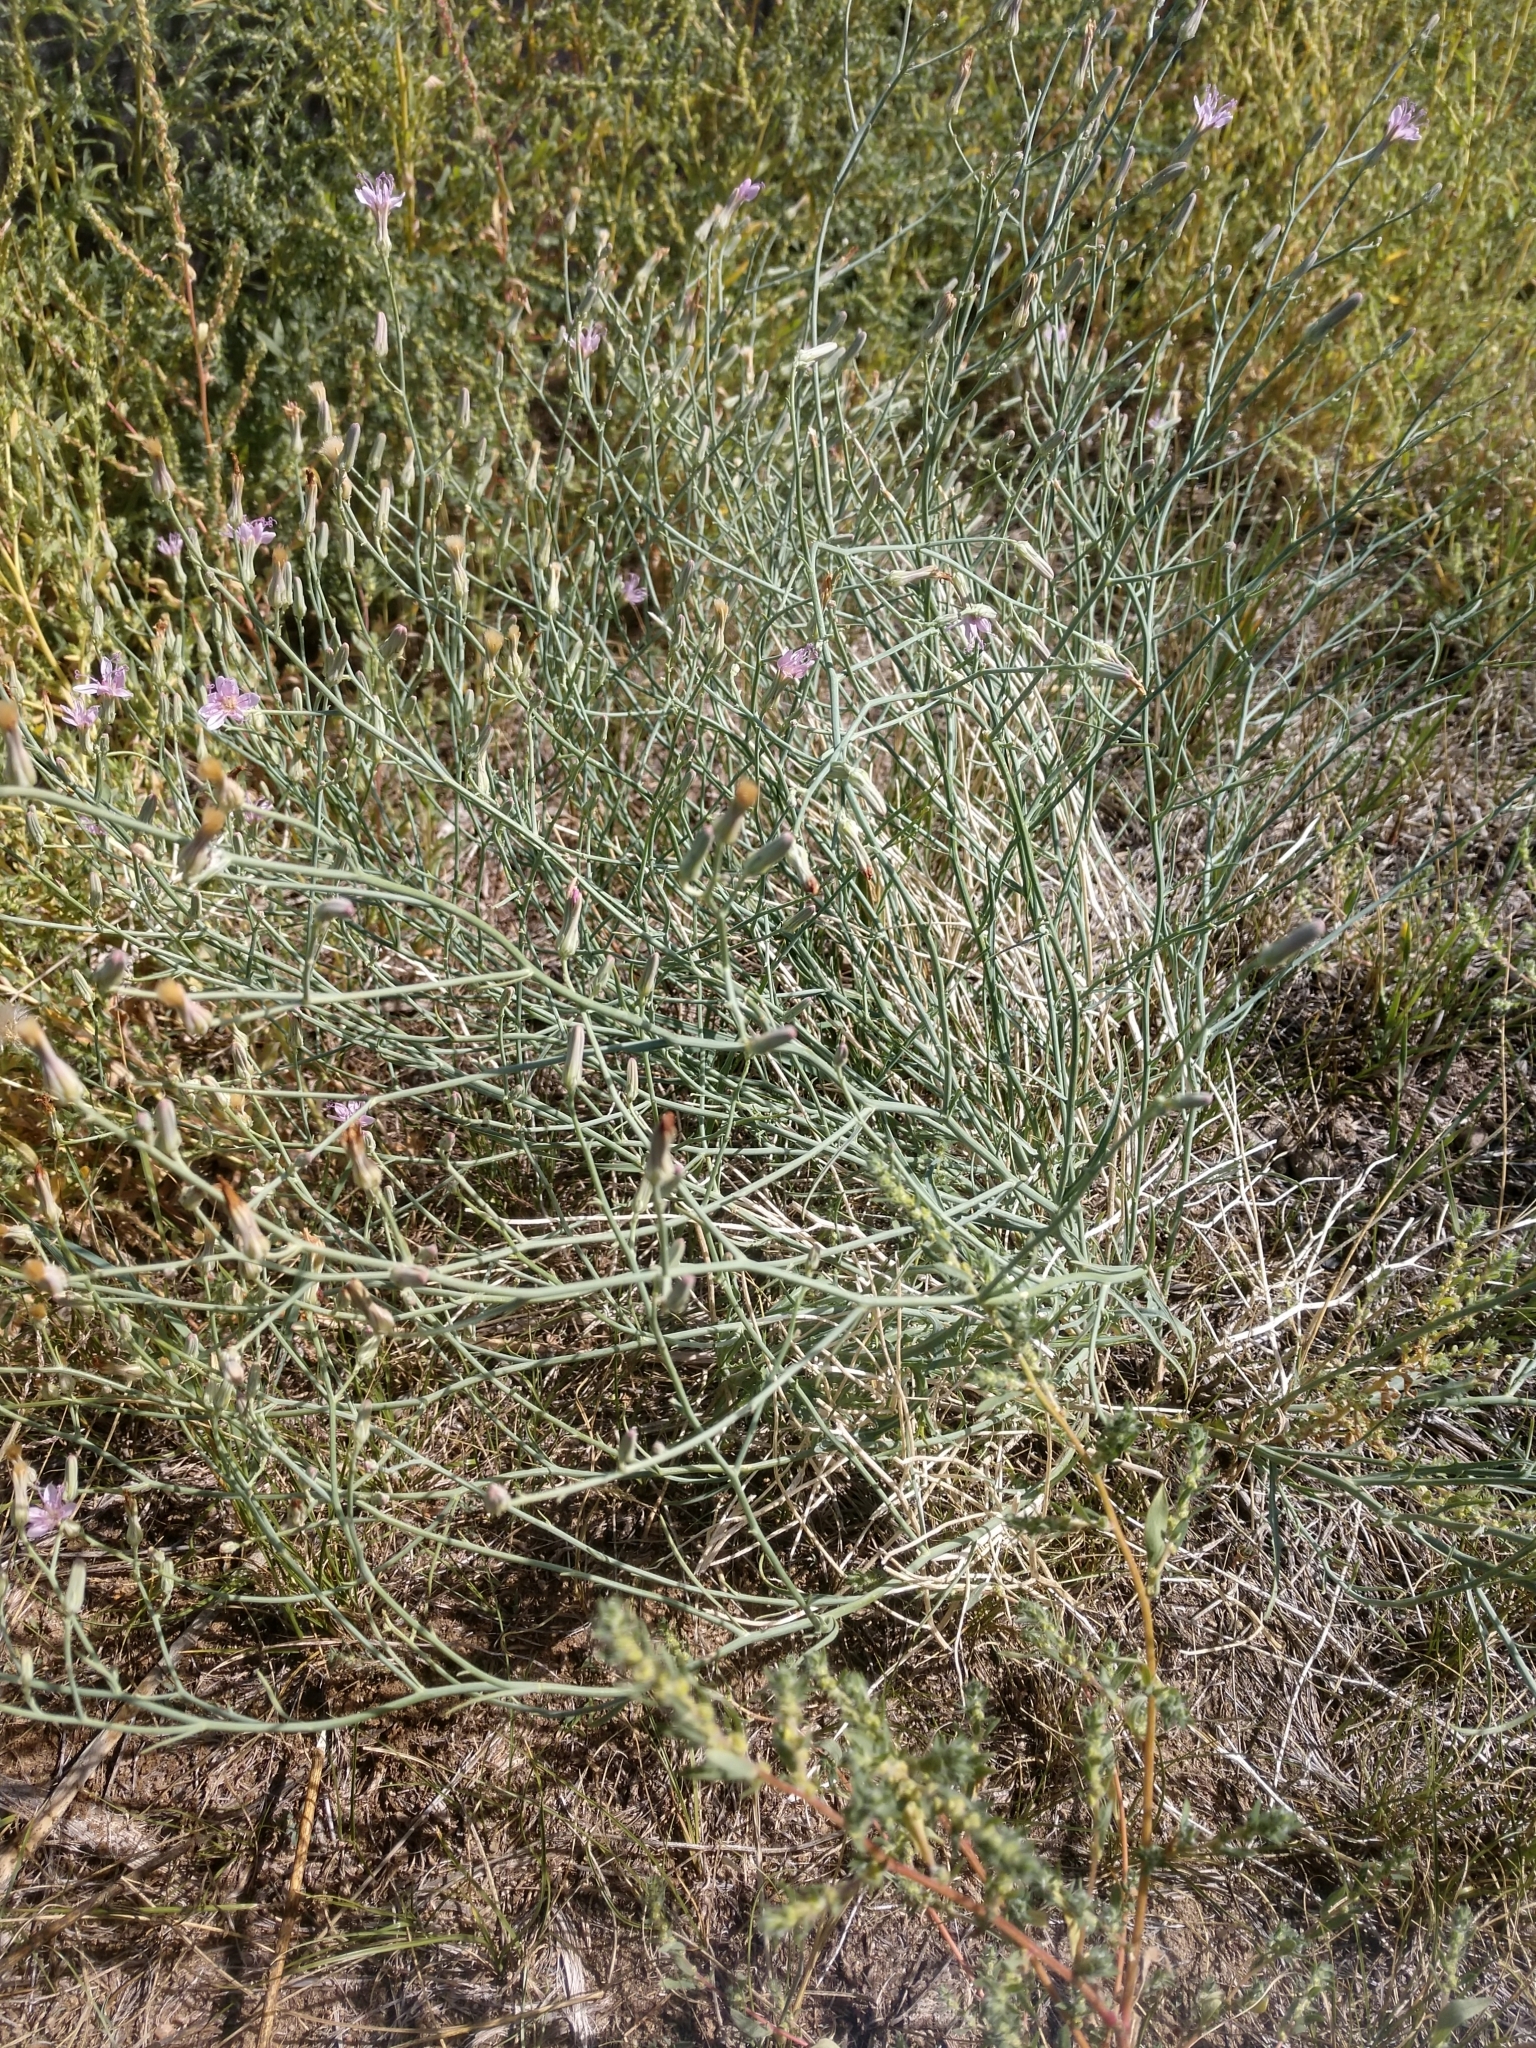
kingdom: Plantae
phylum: Tracheophyta
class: Magnoliopsida
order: Asterales
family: Asteraceae
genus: Lygodesmia
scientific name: Lygodesmia juncea
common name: Common skeletonweed
